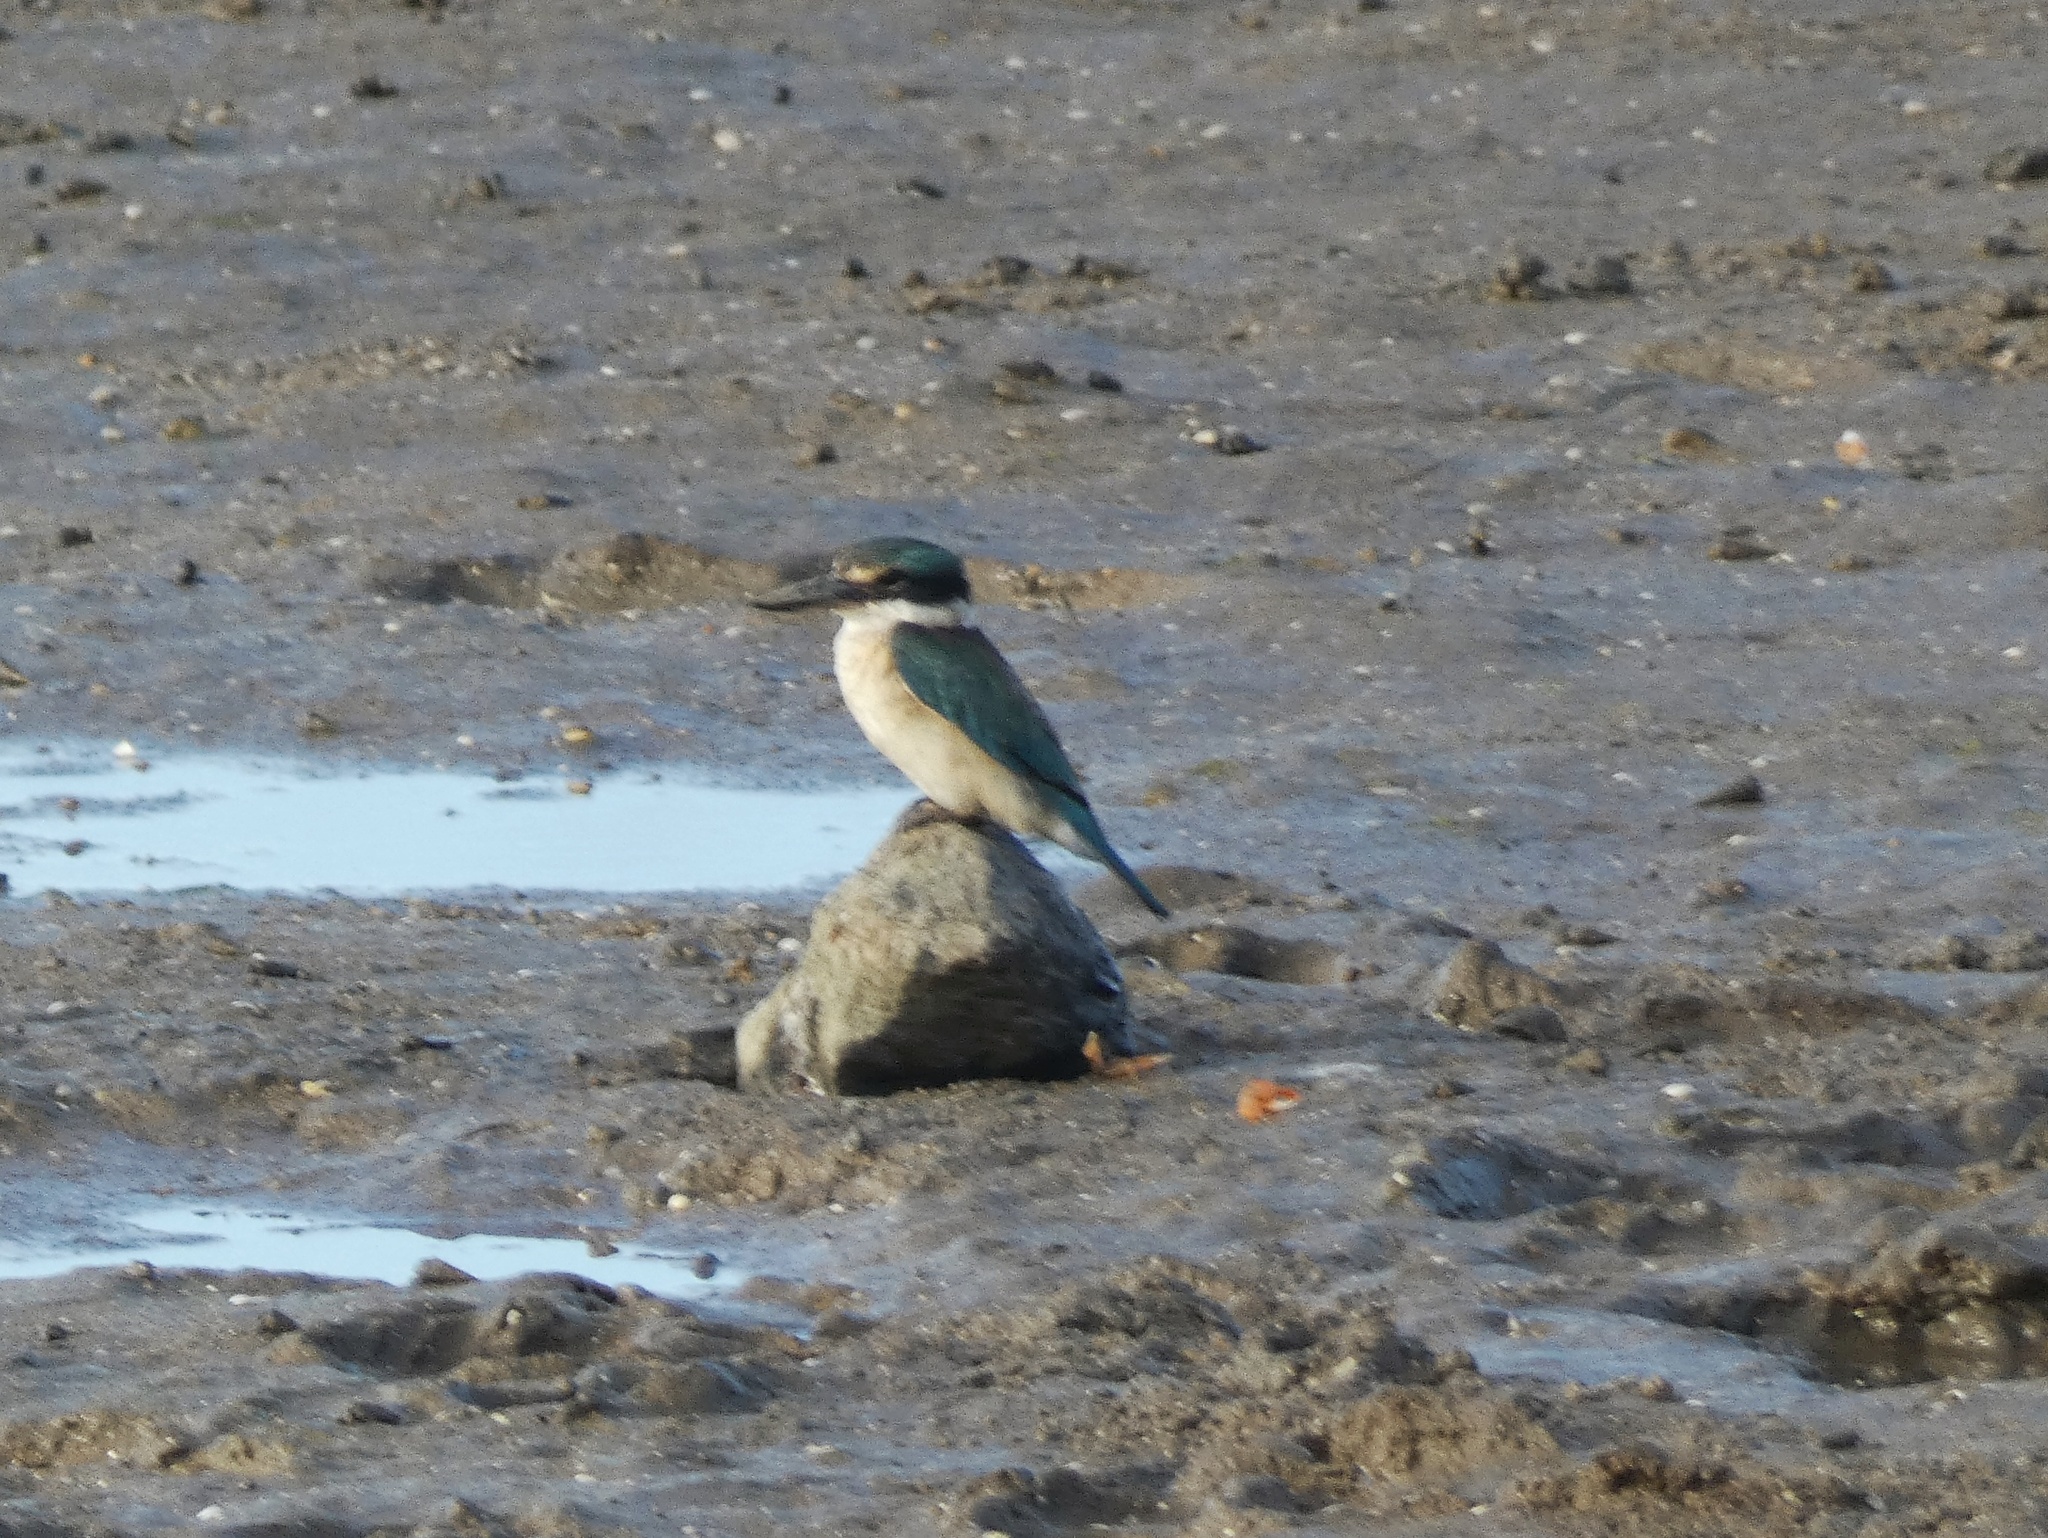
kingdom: Animalia
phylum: Chordata
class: Aves
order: Coraciiformes
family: Alcedinidae
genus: Todiramphus
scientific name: Todiramphus sanctus
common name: Sacred kingfisher
